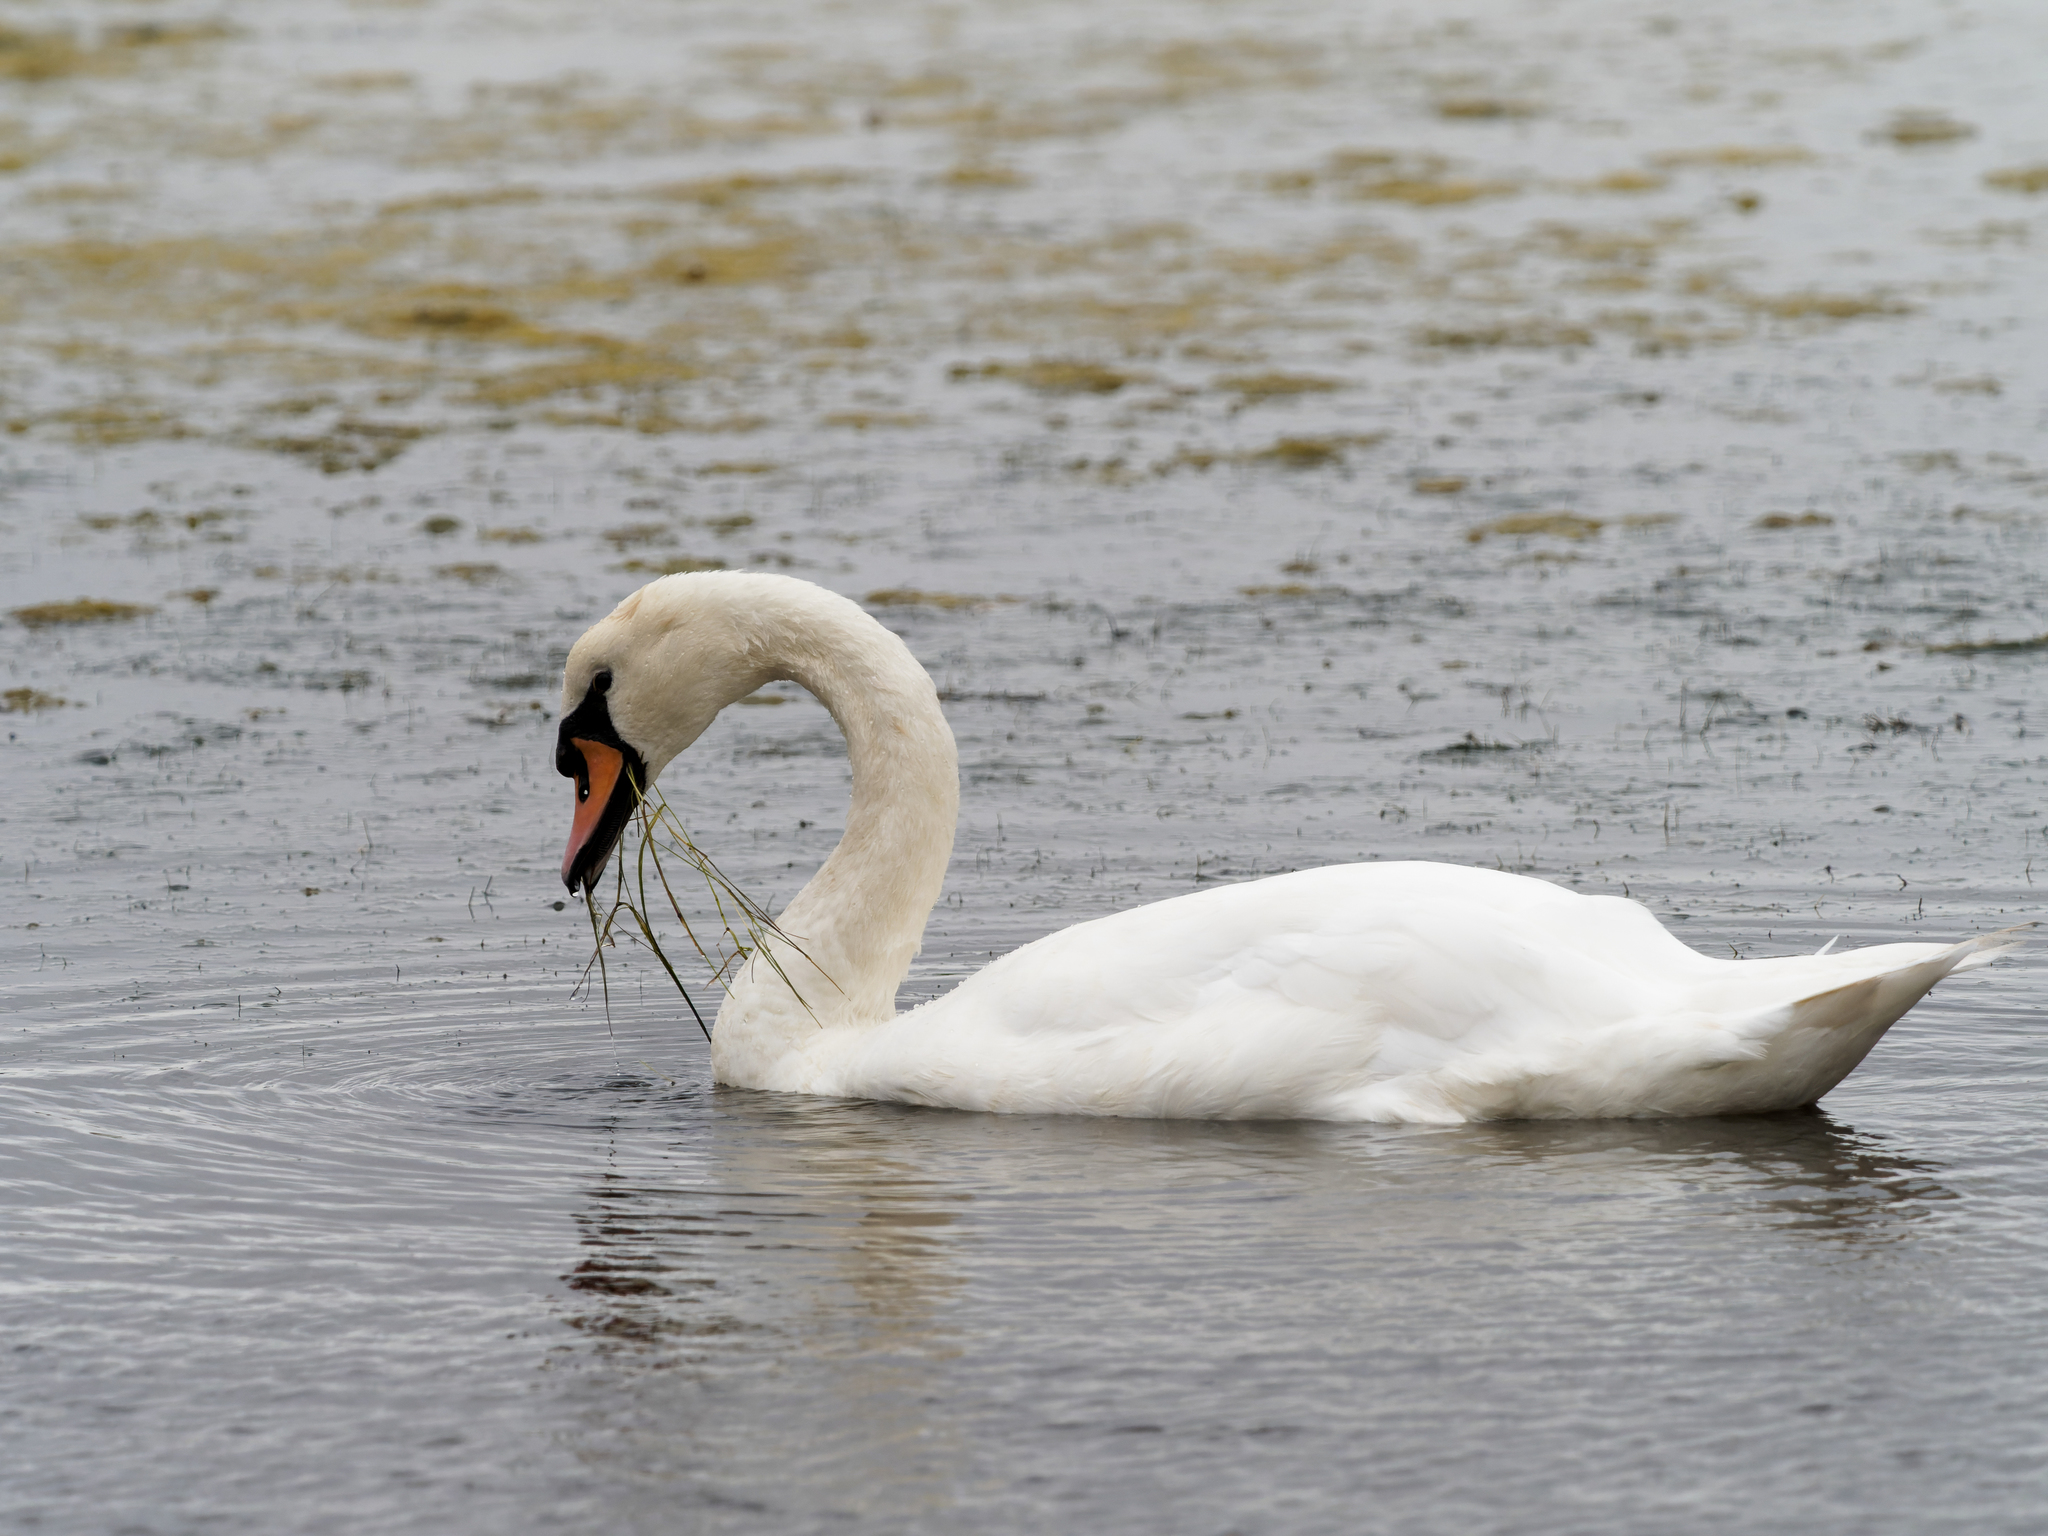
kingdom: Animalia
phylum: Chordata
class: Aves
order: Anseriformes
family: Anatidae
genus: Cygnus
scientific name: Cygnus olor
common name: Mute swan
